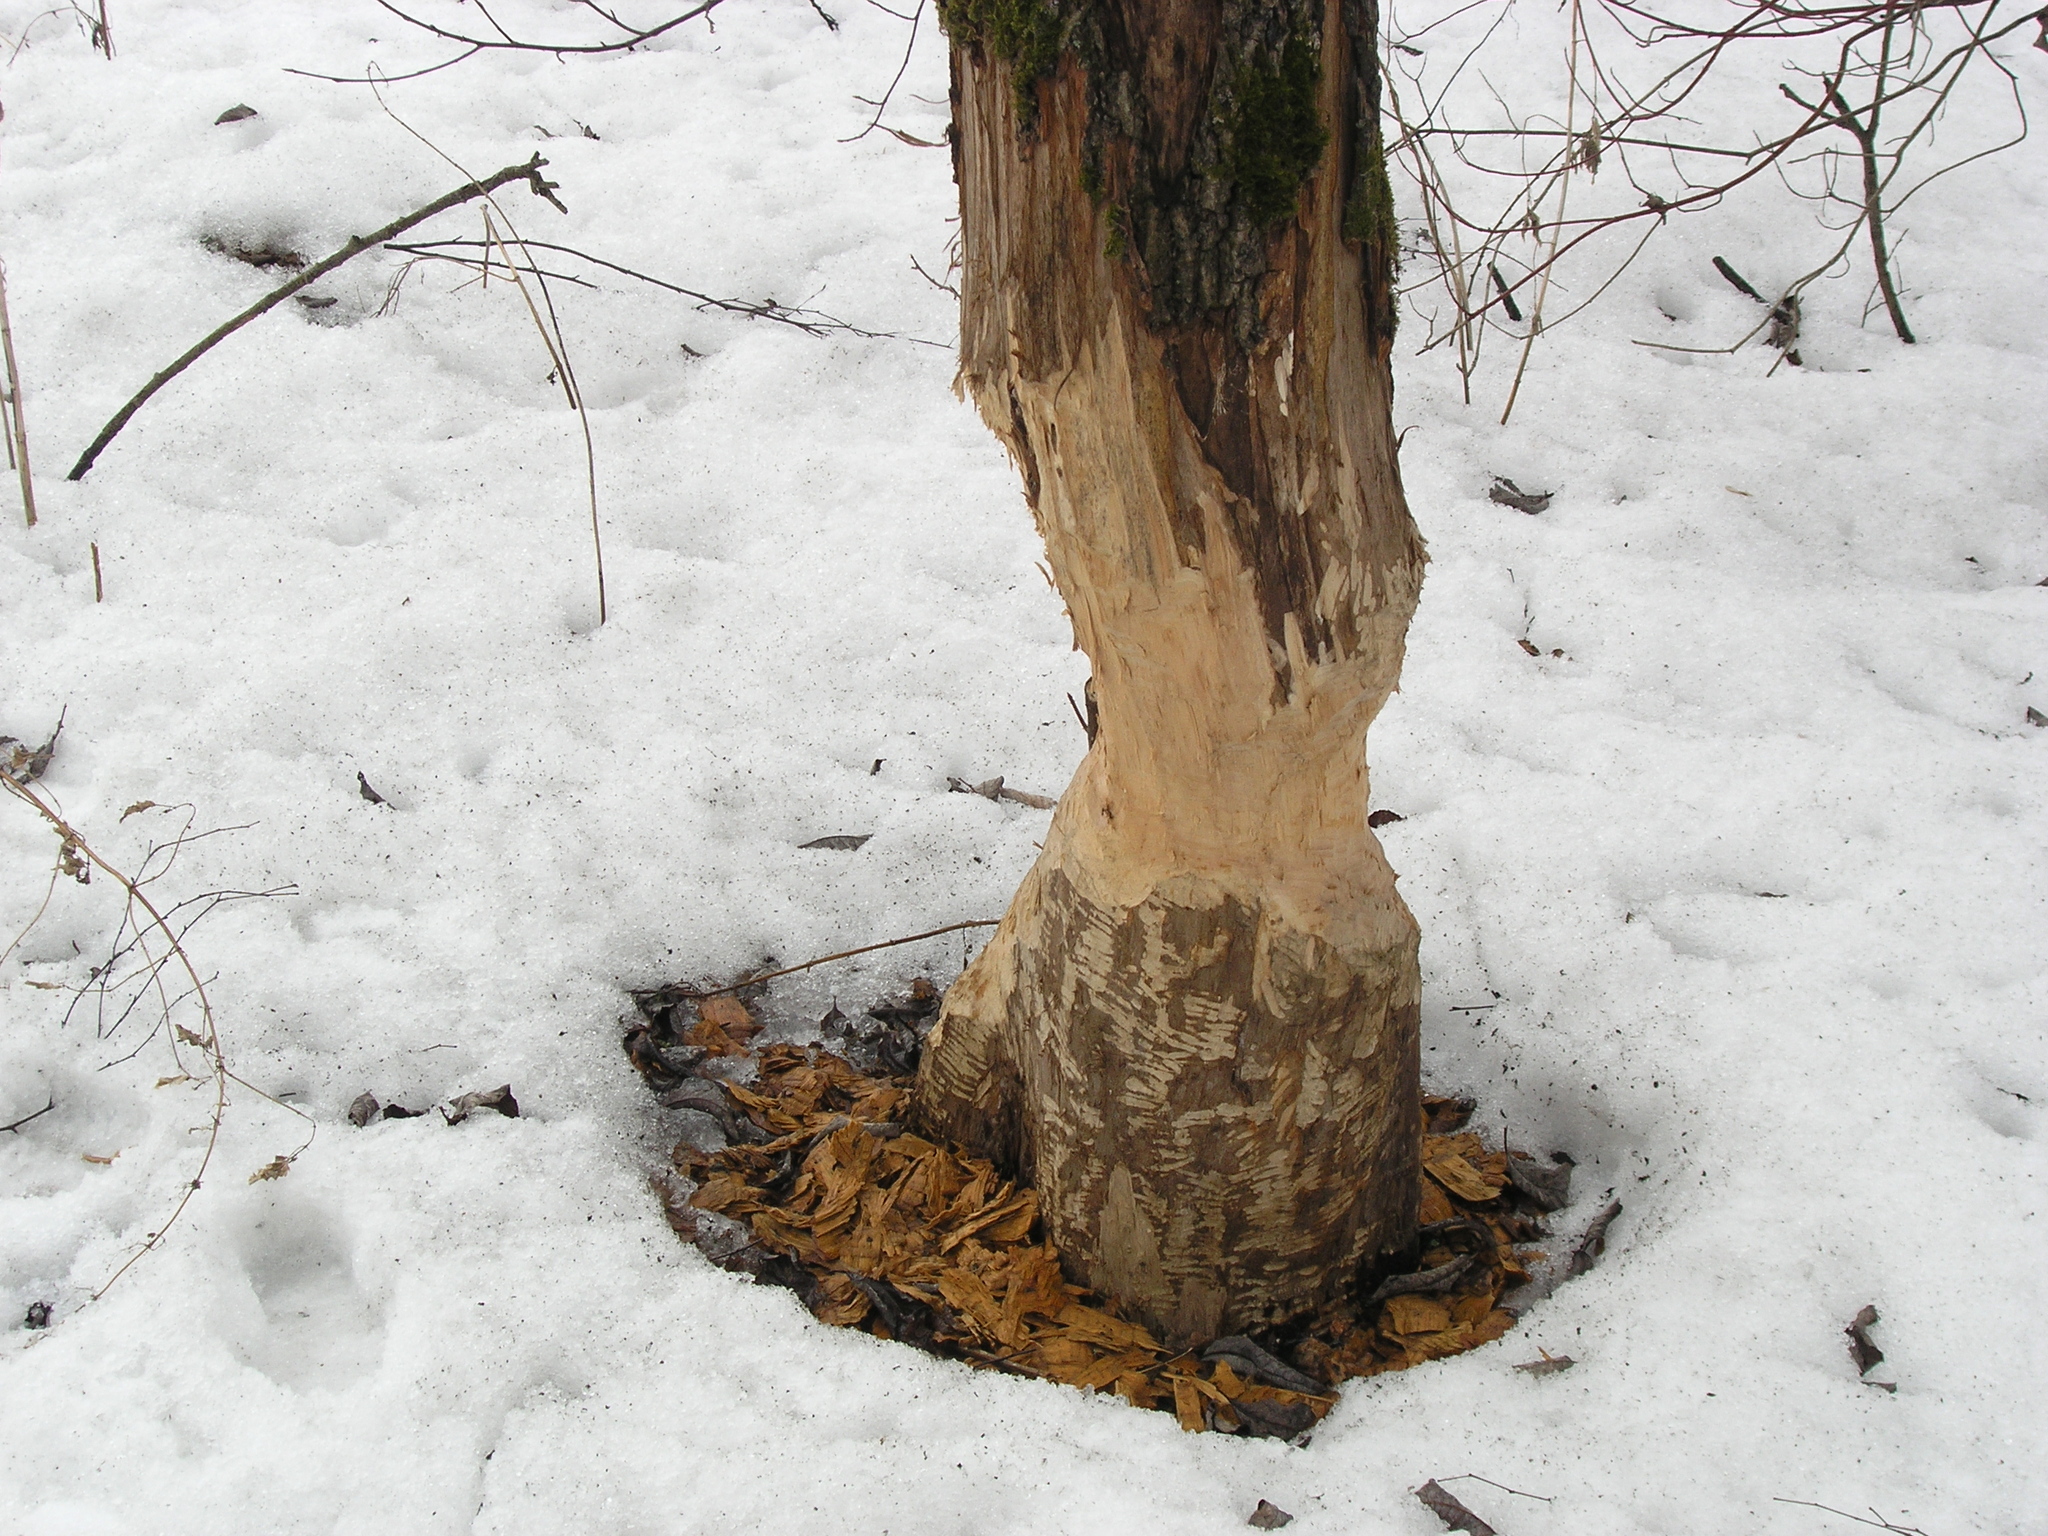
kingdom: Animalia
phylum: Chordata
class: Mammalia
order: Rodentia
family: Castoridae
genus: Castor
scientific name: Castor fiber
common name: Eurasian beaver
